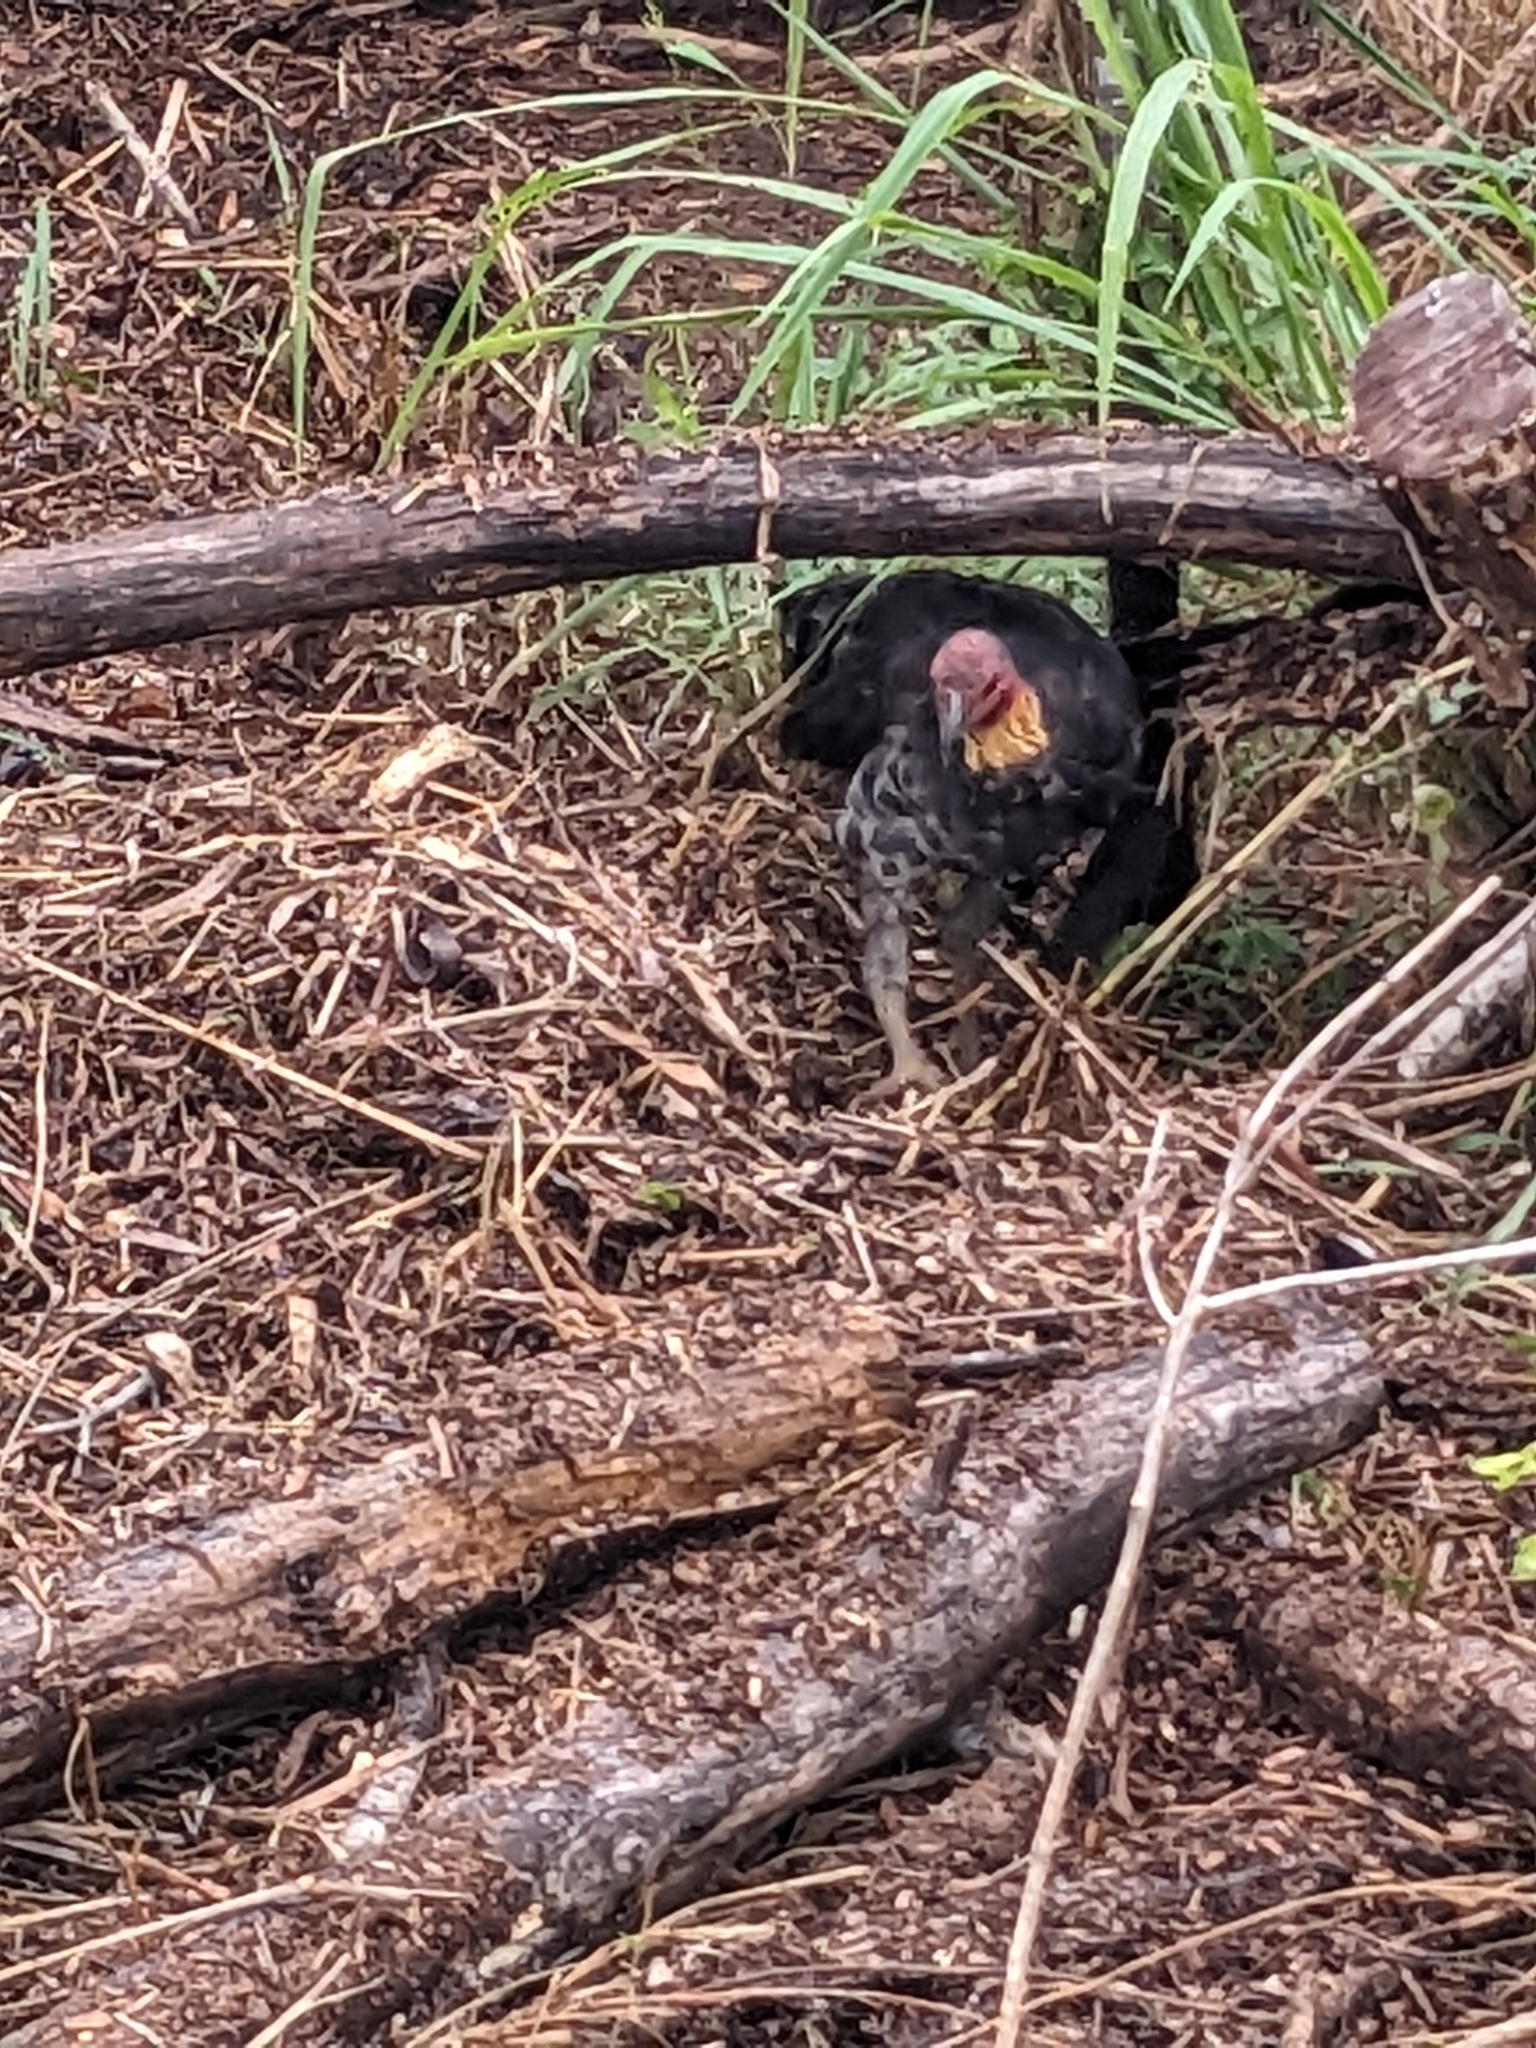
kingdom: Animalia
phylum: Chordata
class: Aves
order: Galliformes
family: Megapodiidae
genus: Alectura
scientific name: Alectura lathami
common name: Australian brushturkey
